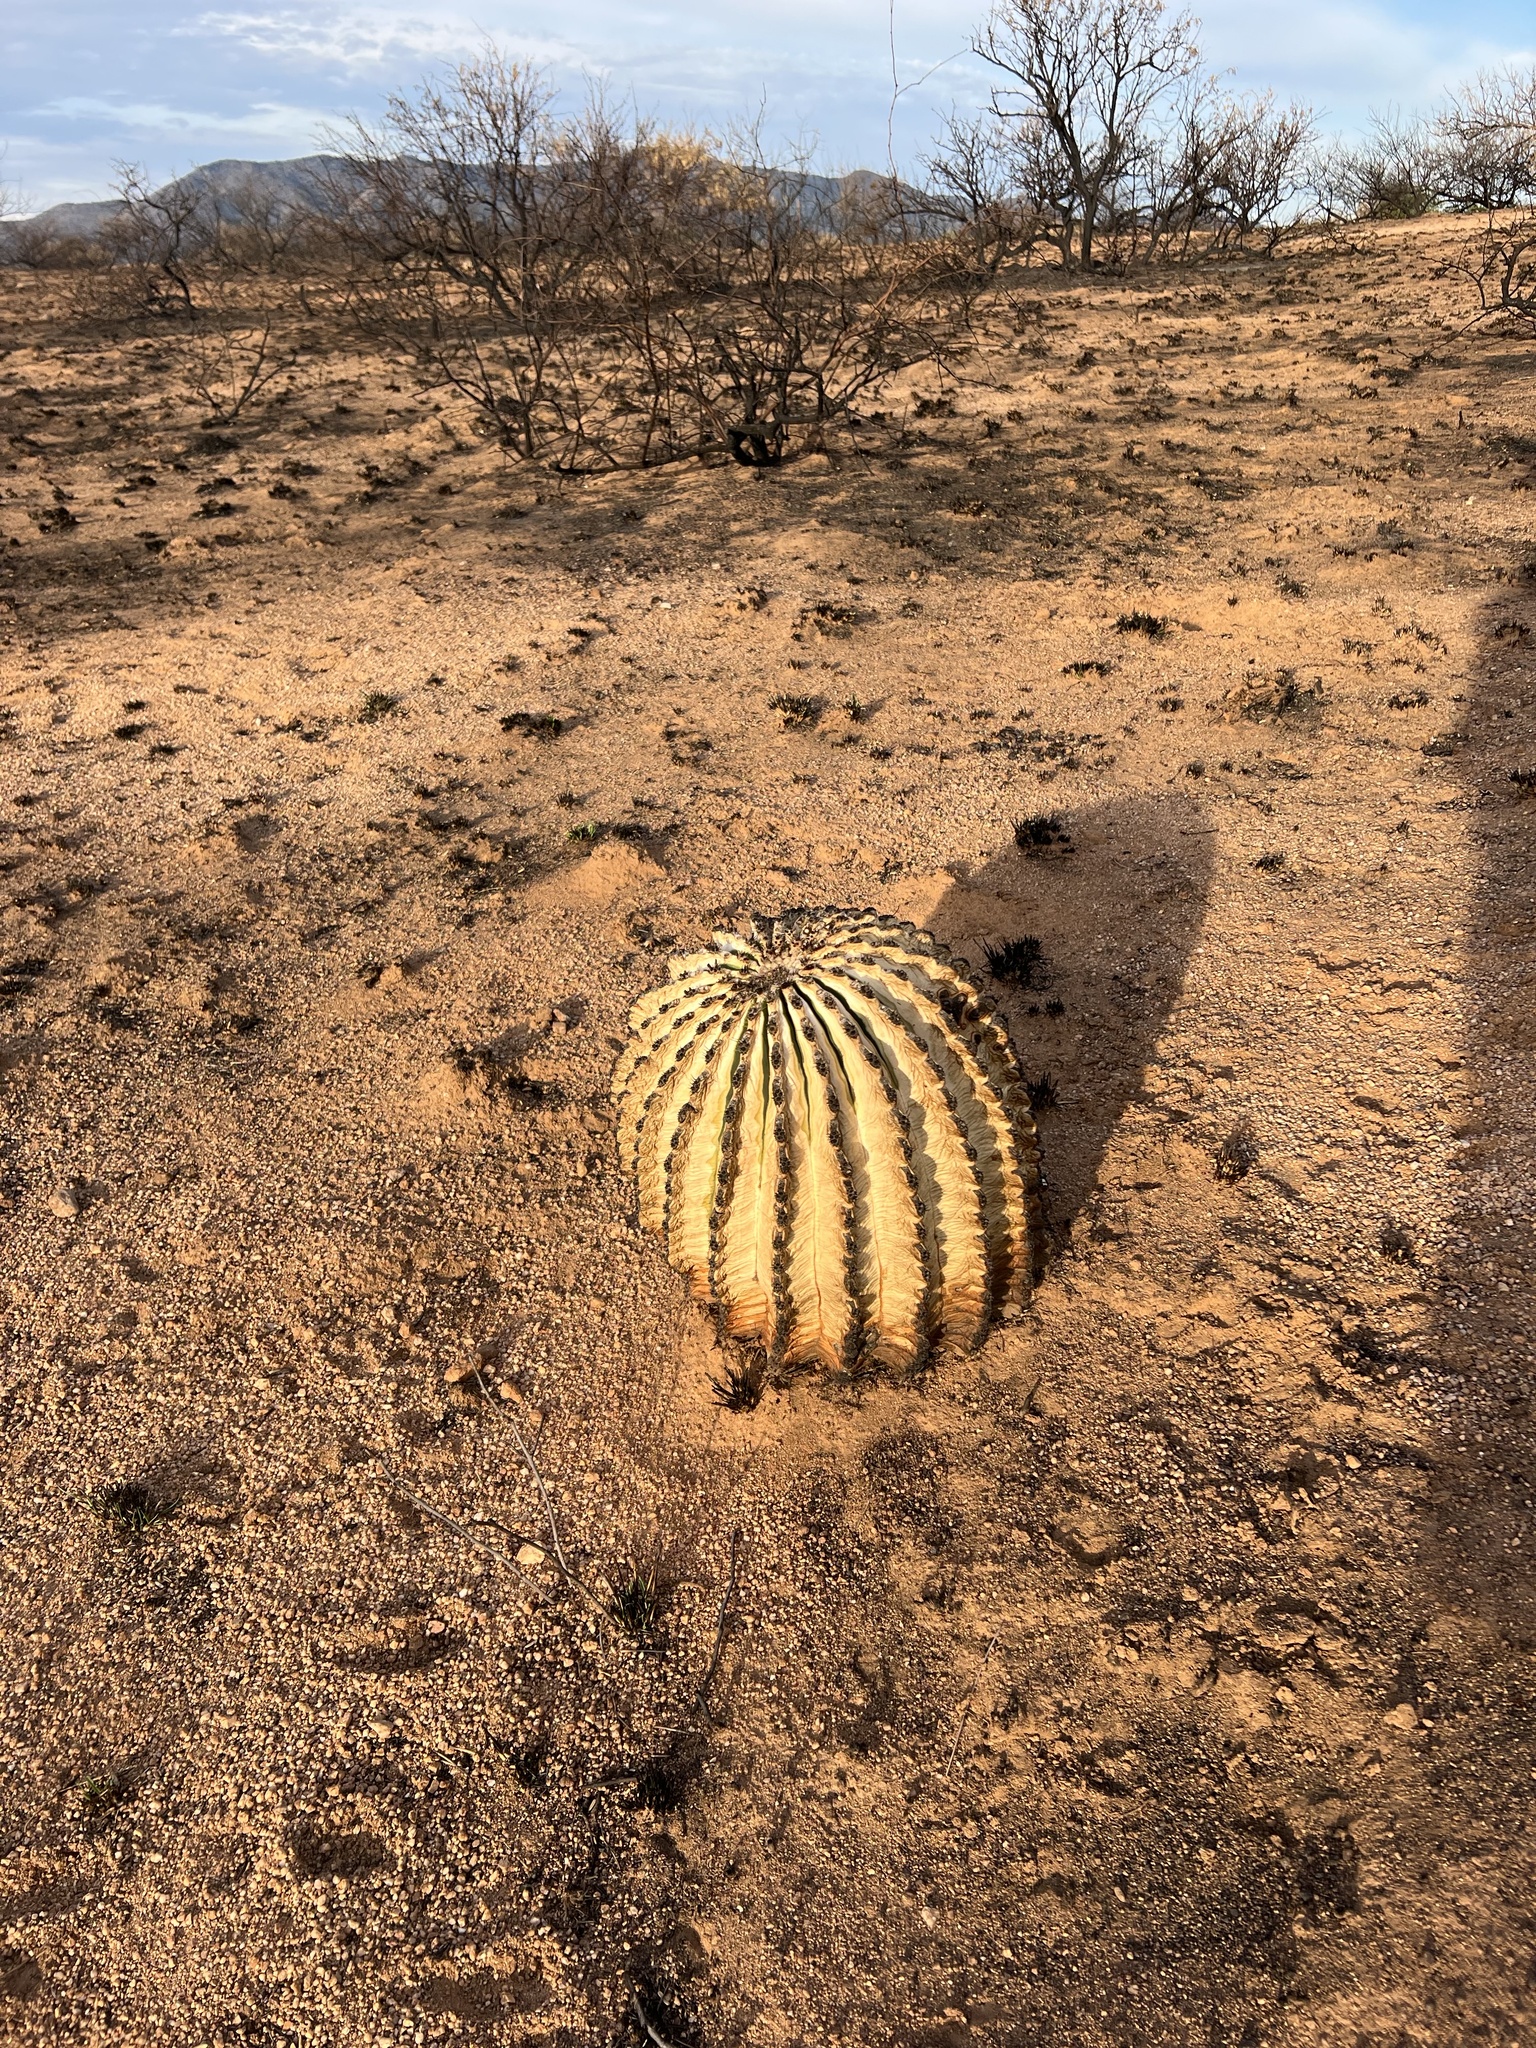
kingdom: Plantae
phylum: Tracheophyta
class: Magnoliopsida
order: Caryophyllales
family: Cactaceae
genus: Ferocactus
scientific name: Ferocactus wislizeni
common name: Candy barrel cactus
